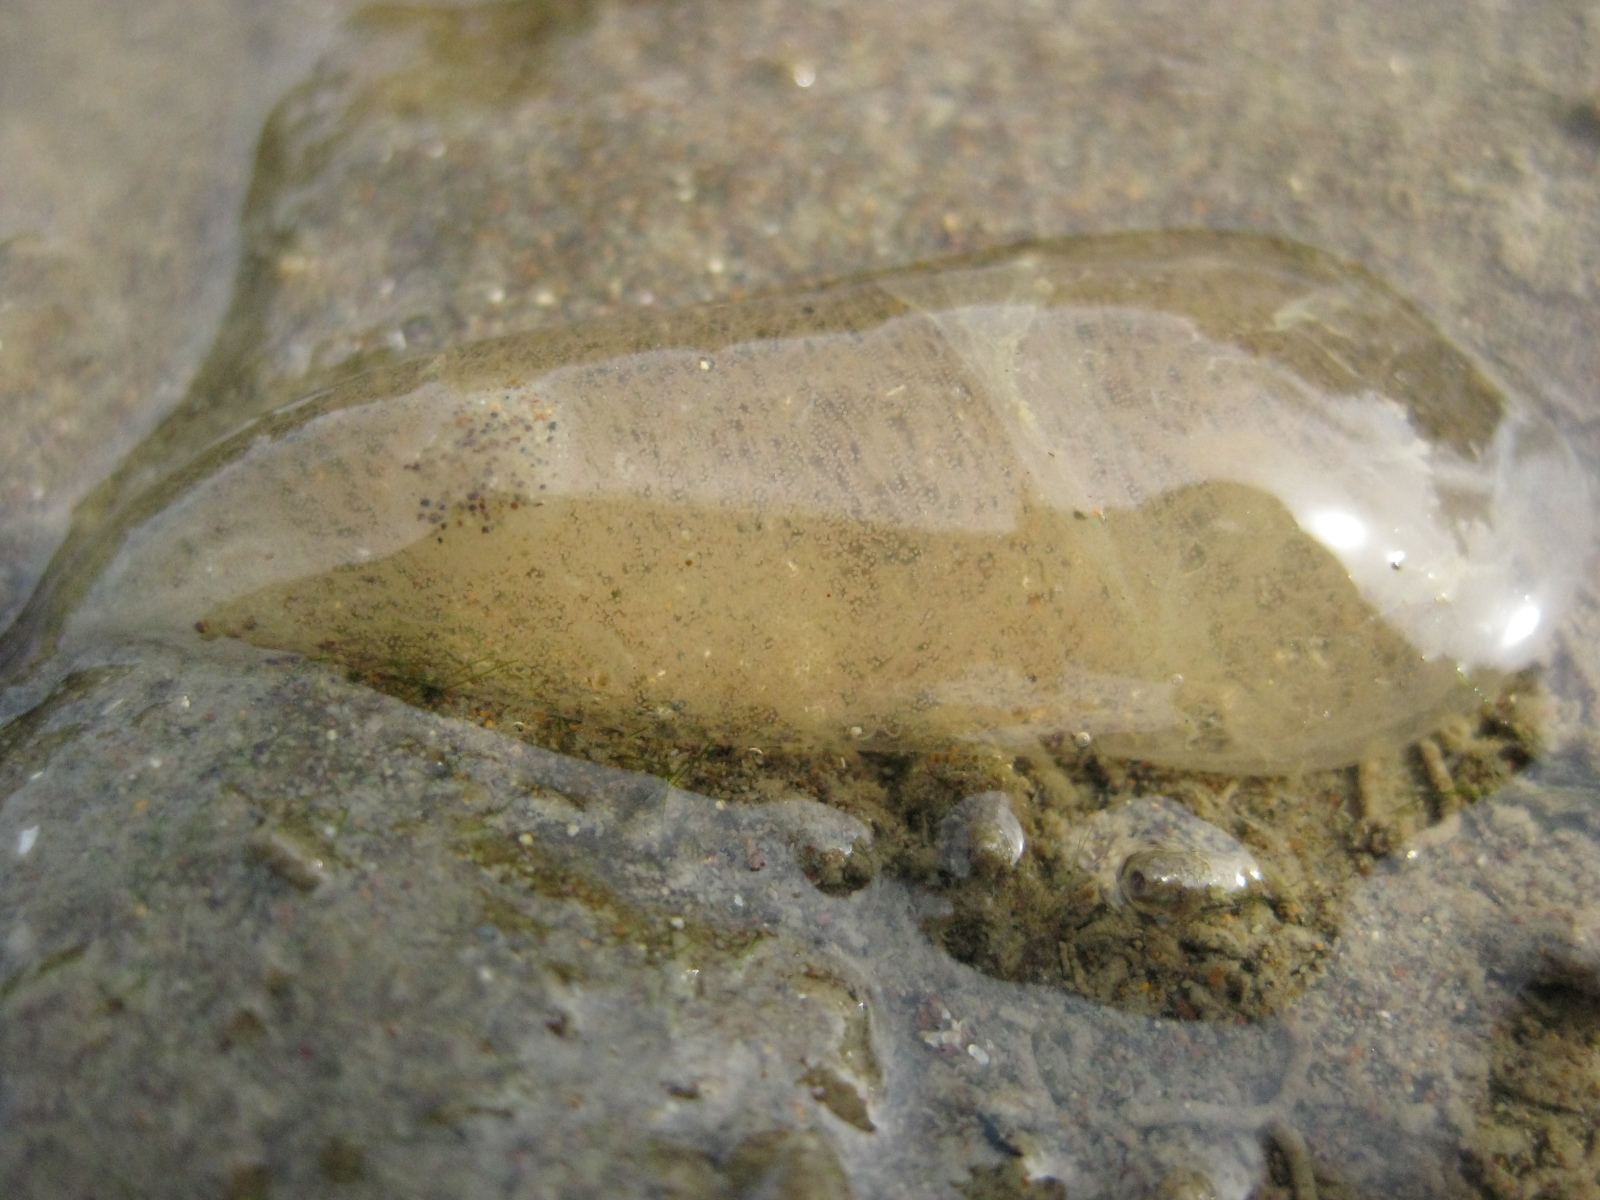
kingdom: Animalia
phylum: Mollusca
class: Gastropoda
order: Cephalaspidea
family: Philinidae
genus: Philine
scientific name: Philine
